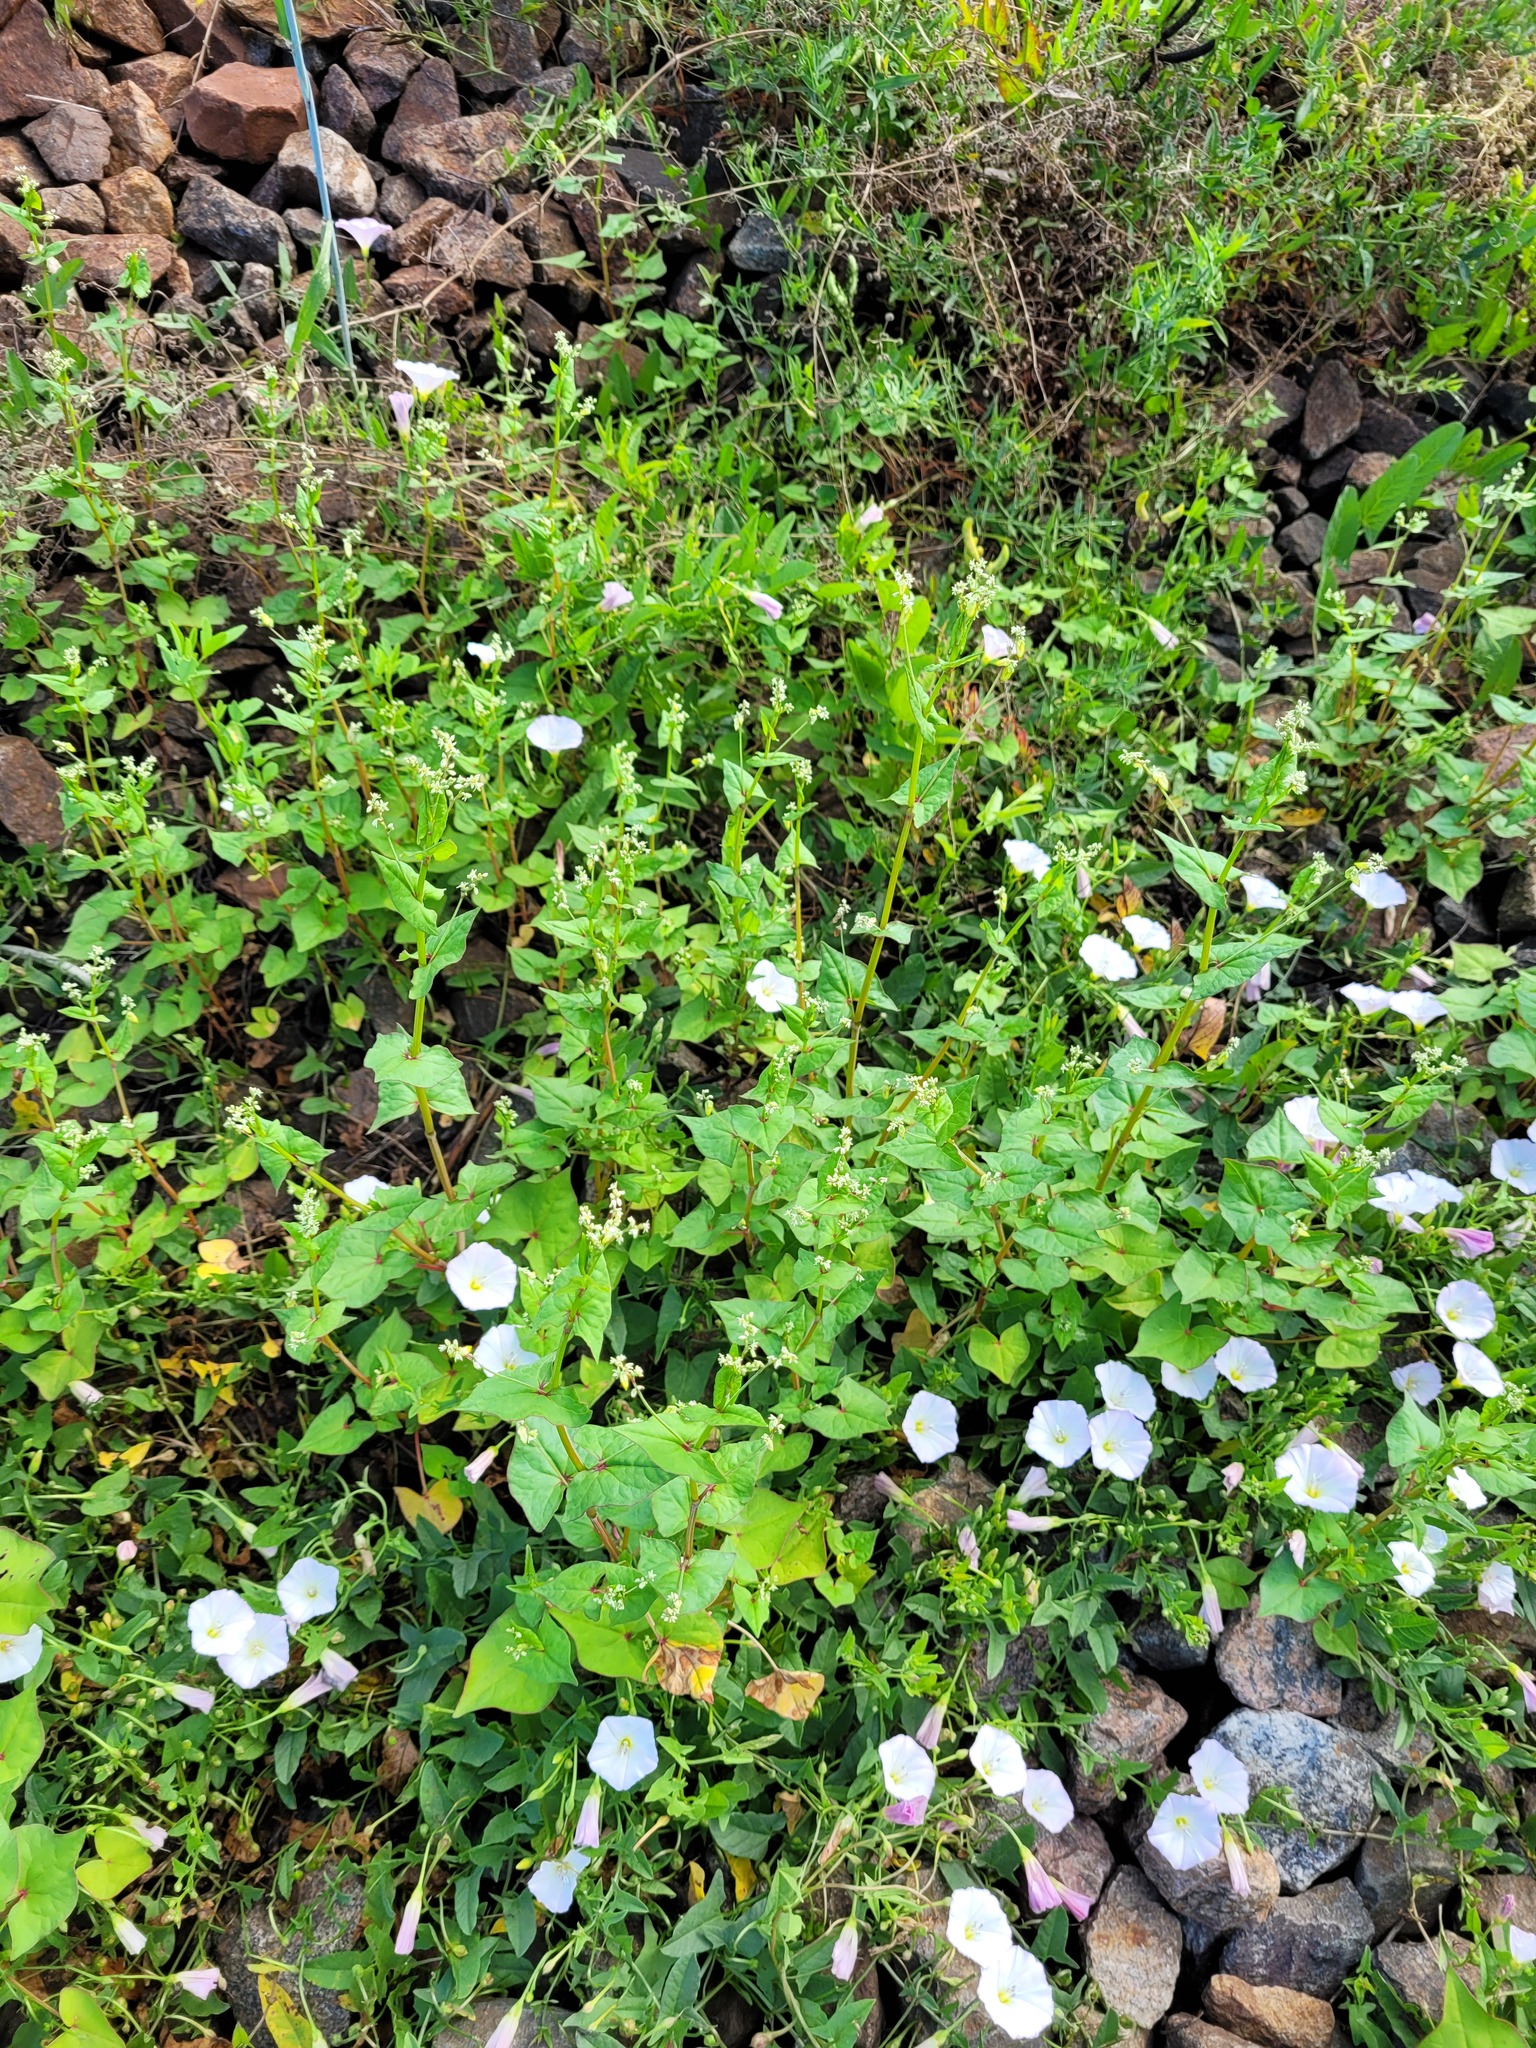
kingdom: Plantae
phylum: Tracheophyta
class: Magnoliopsida
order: Solanales
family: Convolvulaceae
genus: Convolvulus
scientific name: Convolvulus arvensis
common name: Field bindweed
